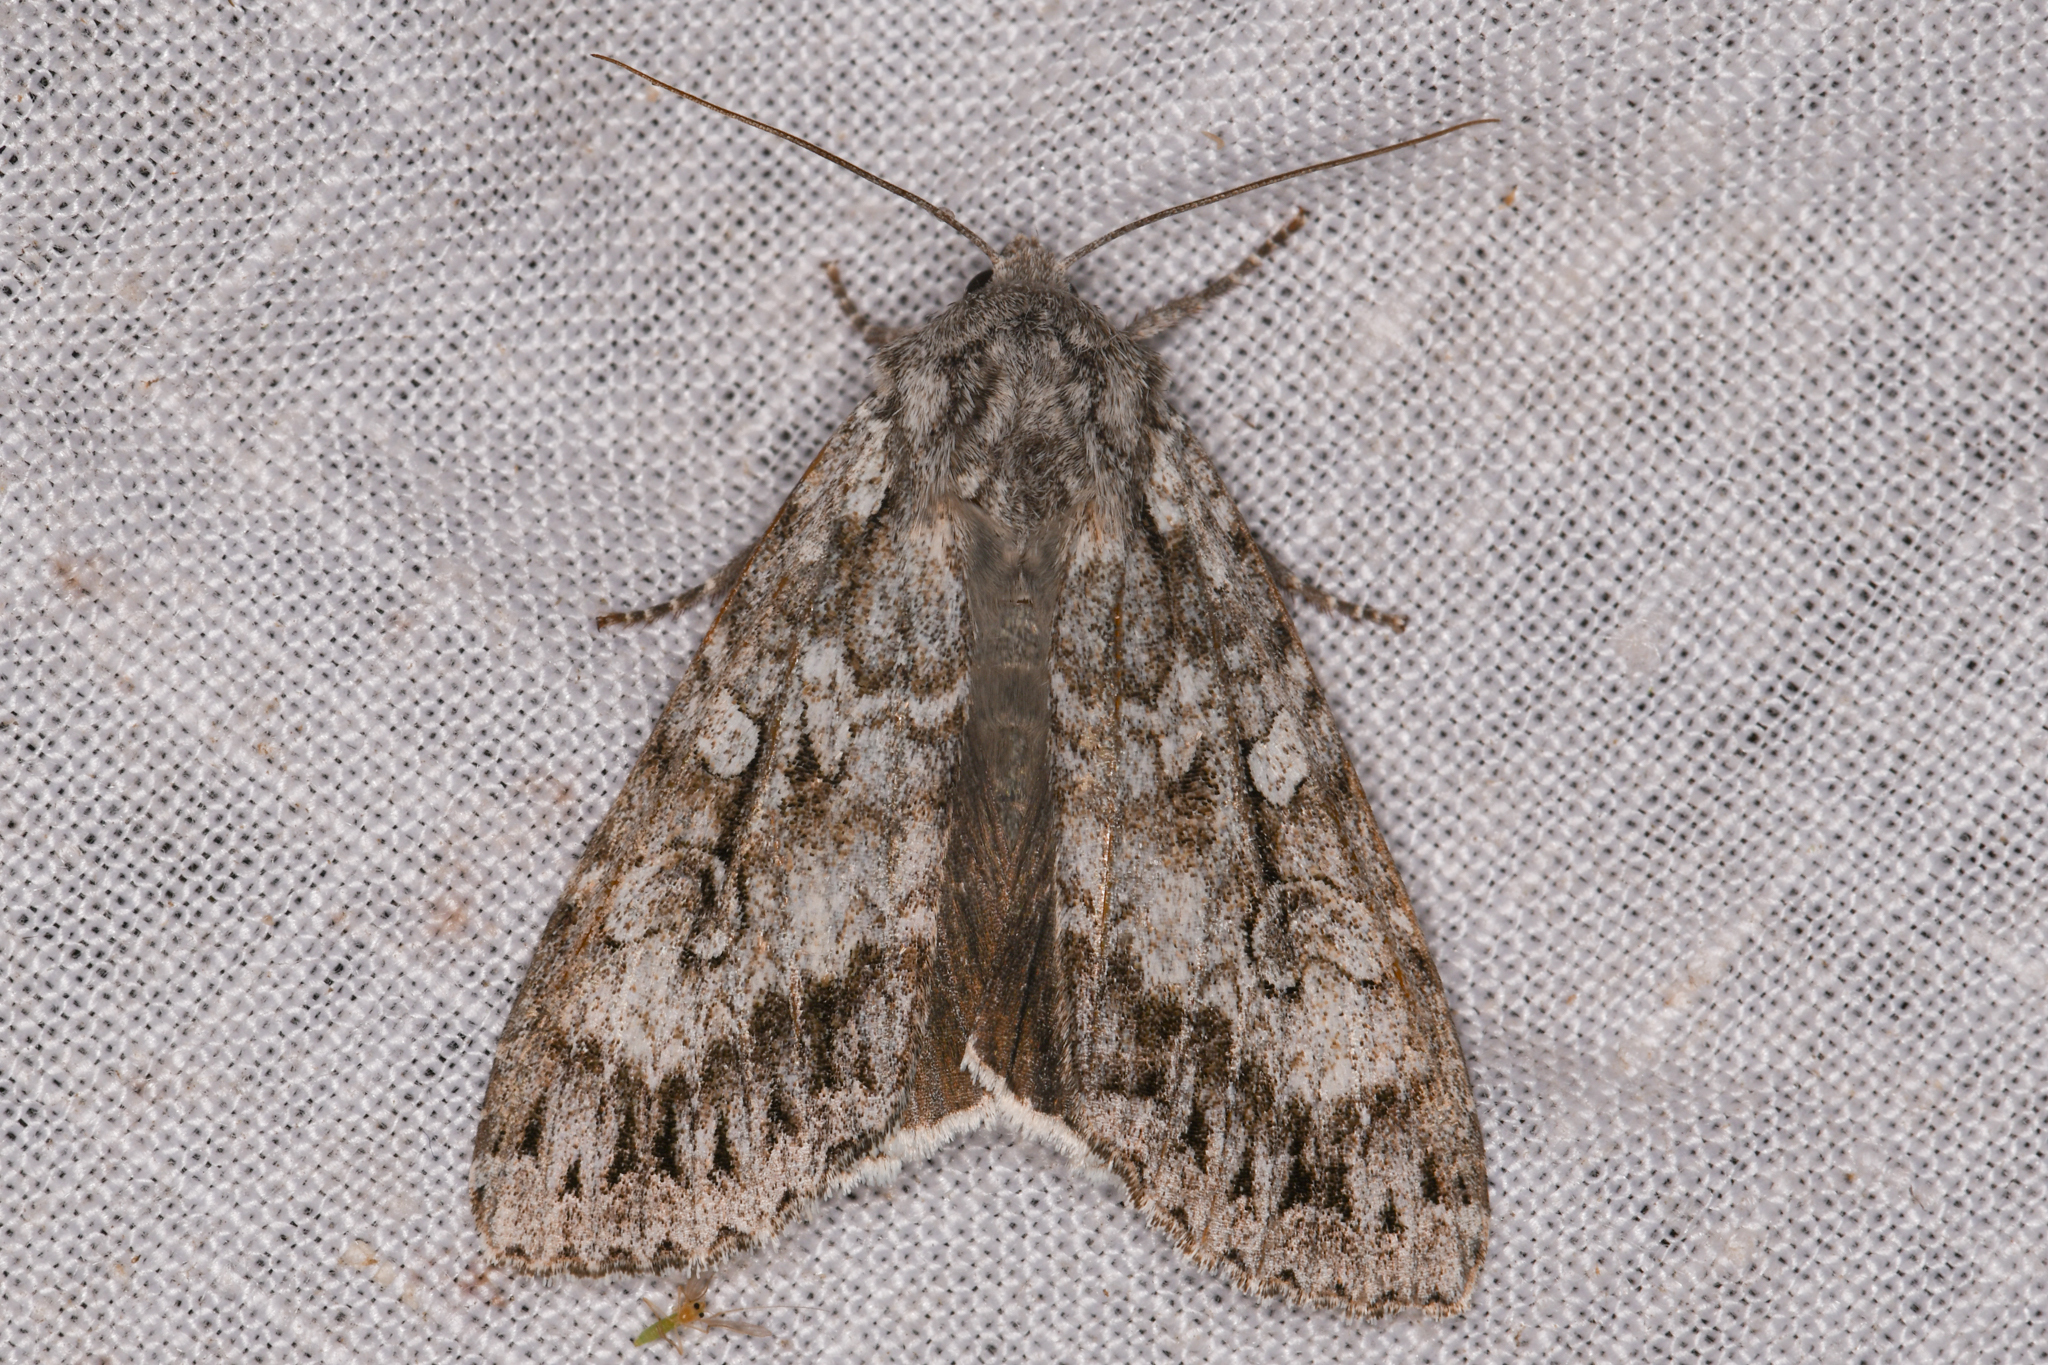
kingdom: Animalia
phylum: Arthropoda
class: Insecta
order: Lepidoptera
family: Noctuidae
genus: Eurois
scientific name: Eurois occulta
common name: Great brocade
